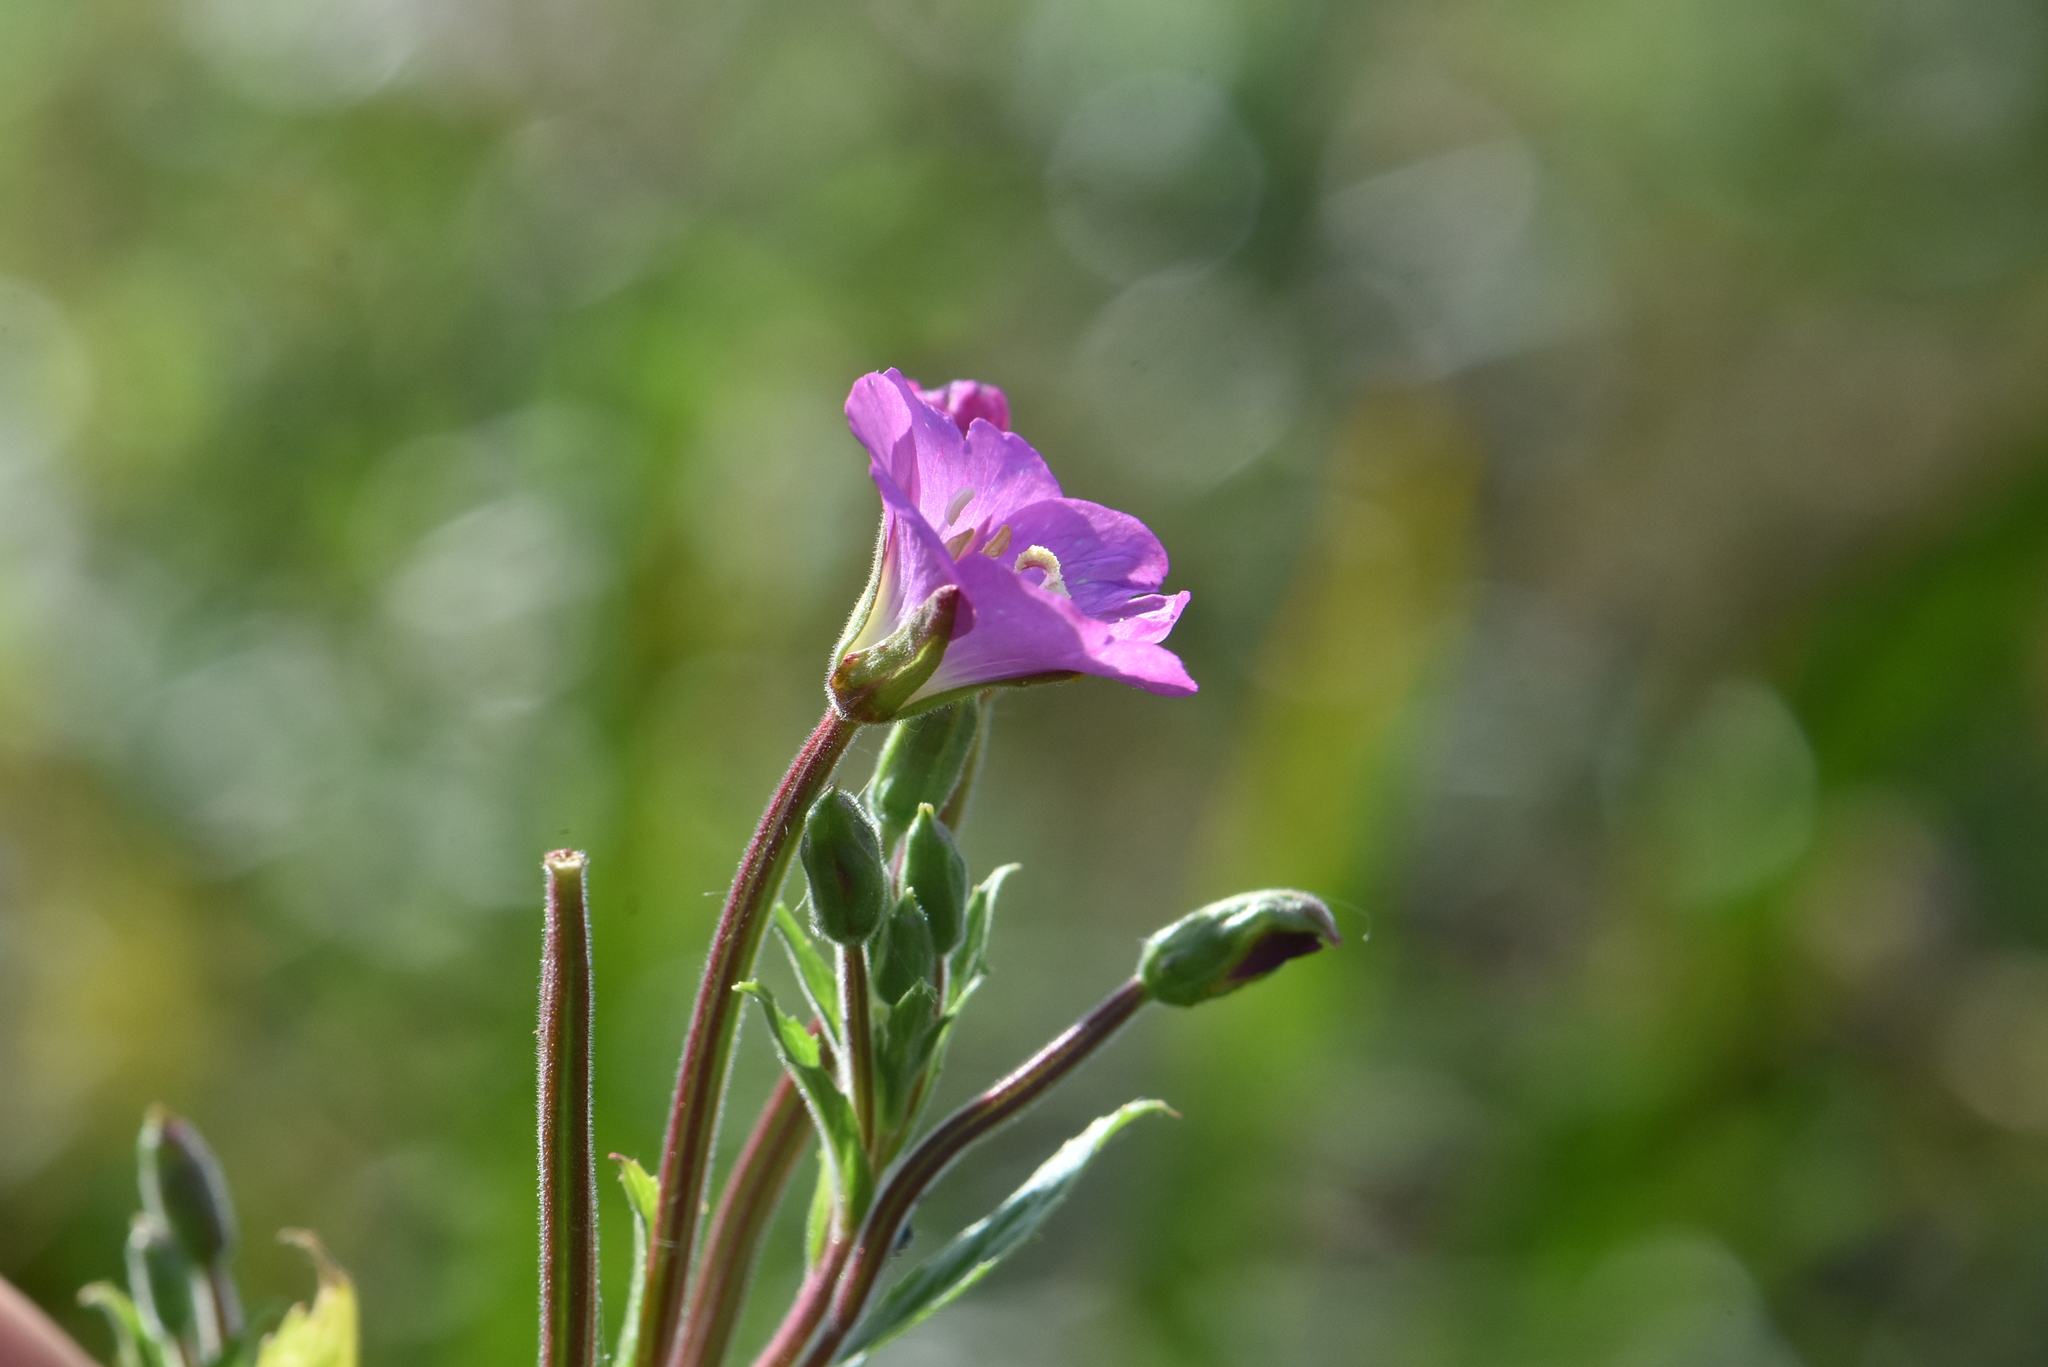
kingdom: Plantae
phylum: Tracheophyta
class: Magnoliopsida
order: Myrtales
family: Onagraceae
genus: Epilobium
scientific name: Epilobium hirsutum
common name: Great willowherb
